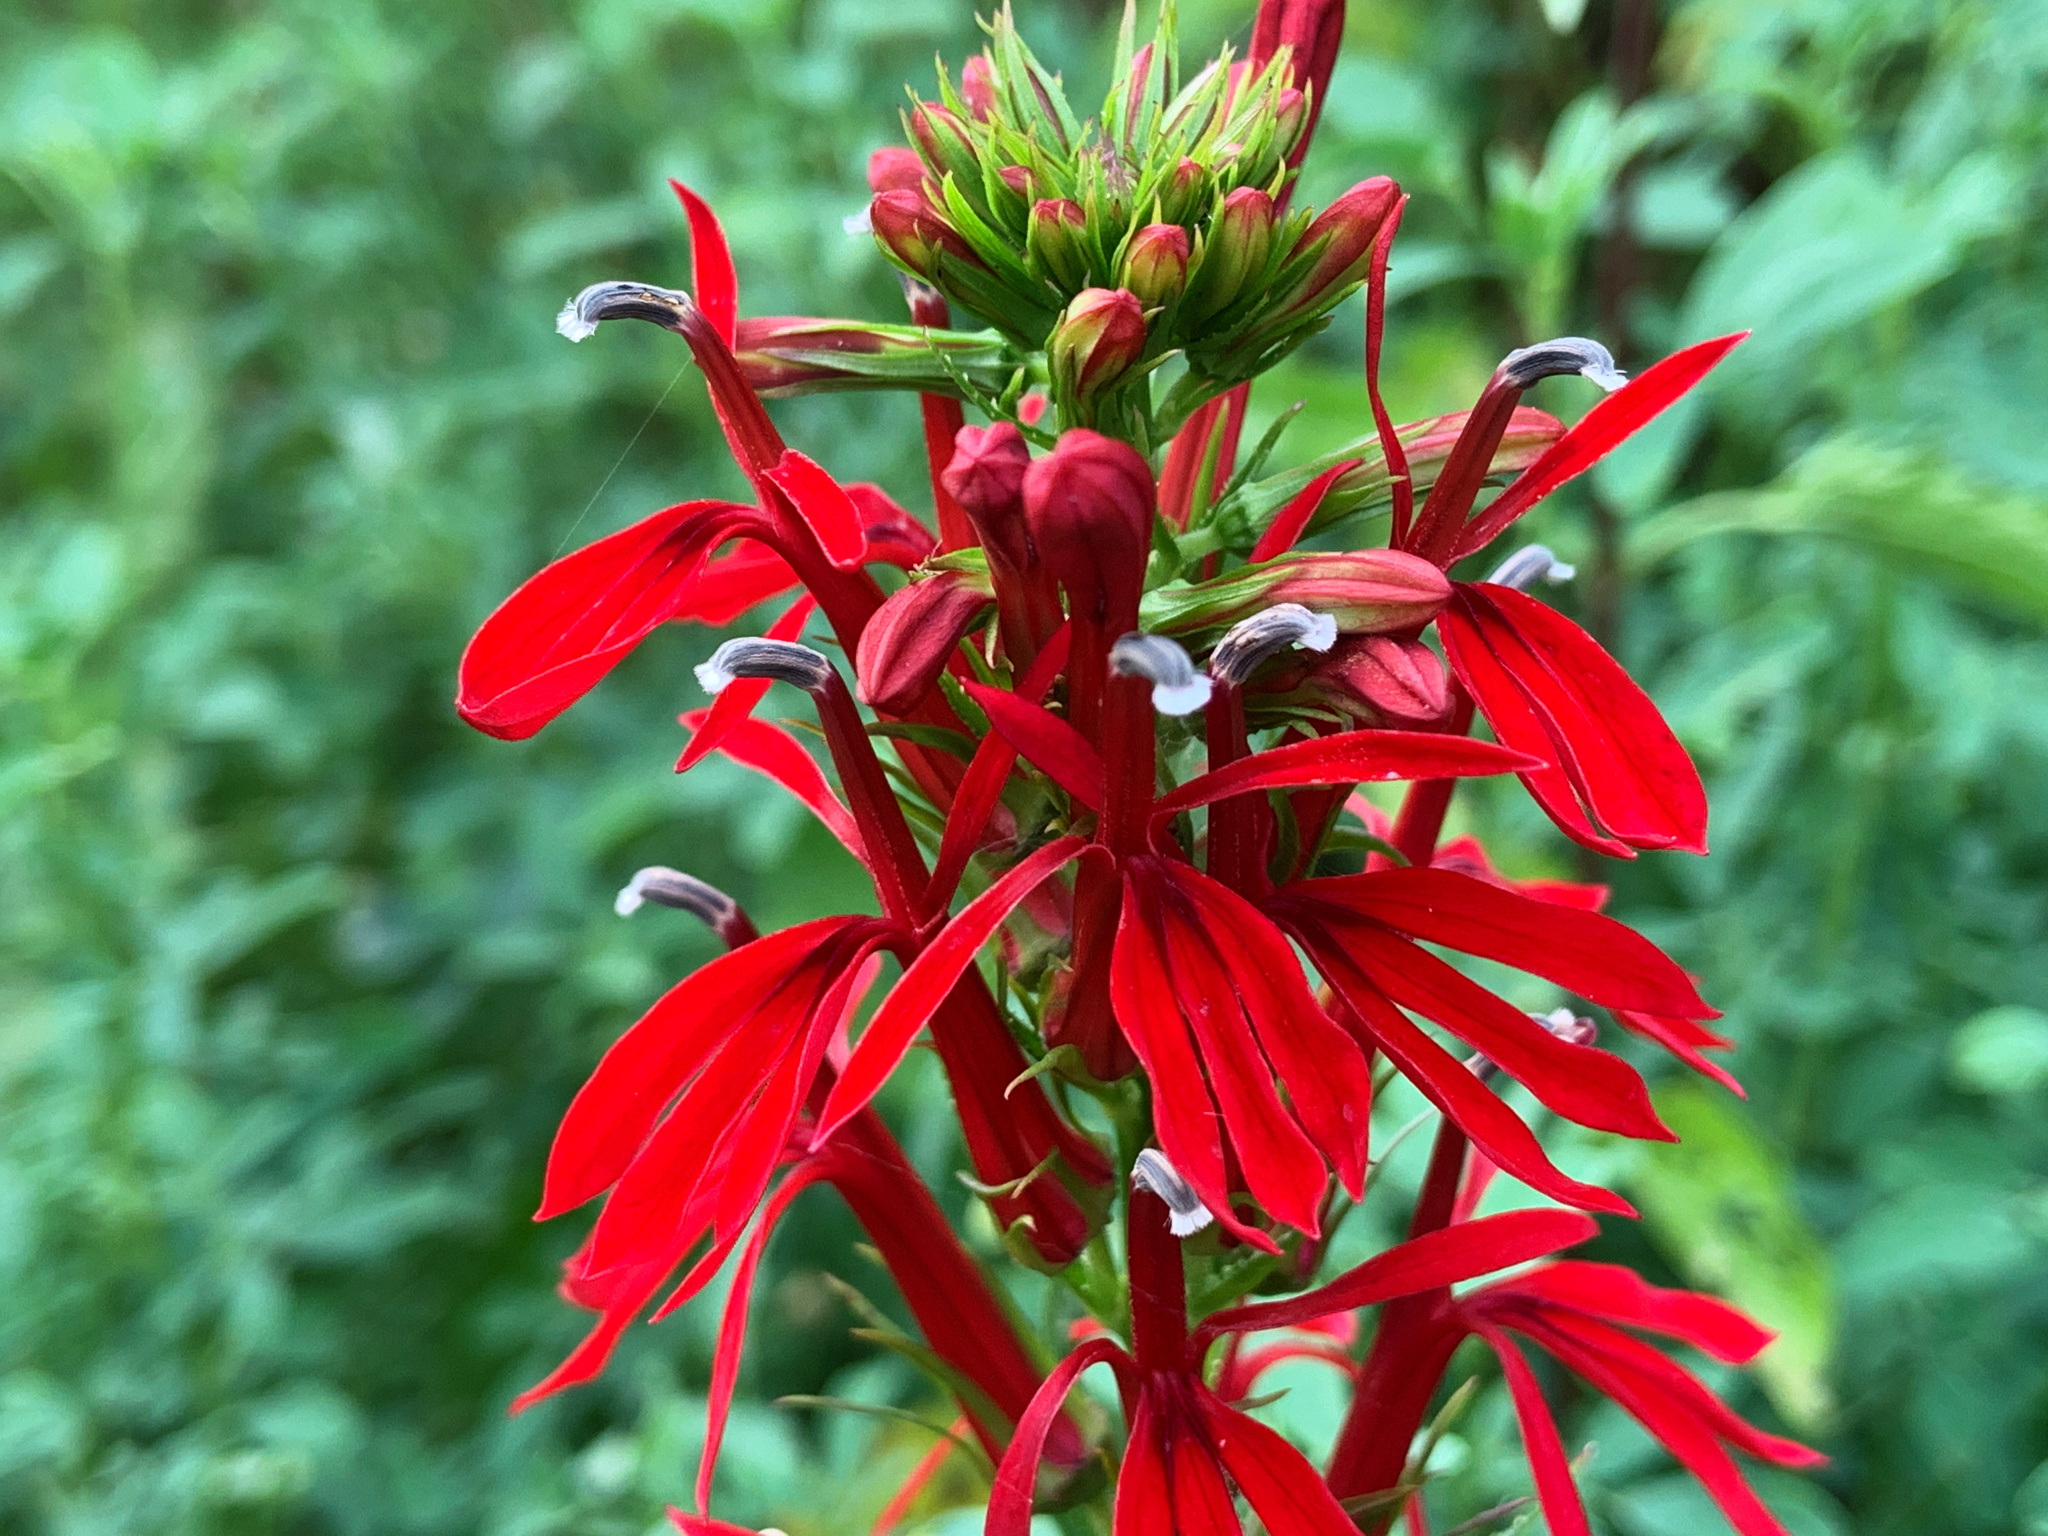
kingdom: Plantae
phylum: Tracheophyta
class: Magnoliopsida
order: Asterales
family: Campanulaceae
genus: Lobelia
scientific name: Lobelia cardinalis
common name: Cardinal flower
